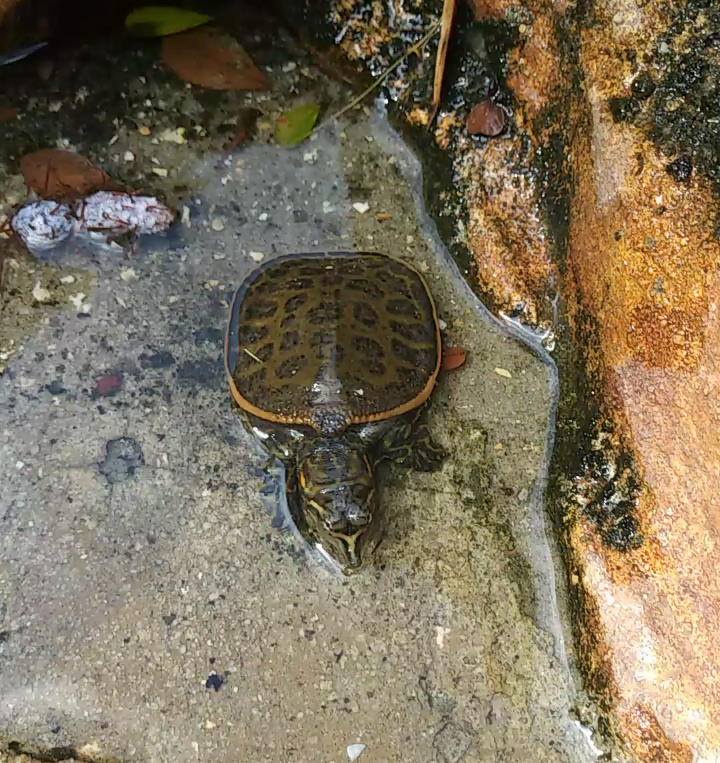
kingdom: Animalia
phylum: Chordata
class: Testudines
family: Trionychidae
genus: Apalone
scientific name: Apalone ferox
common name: Florida softshell turtle
